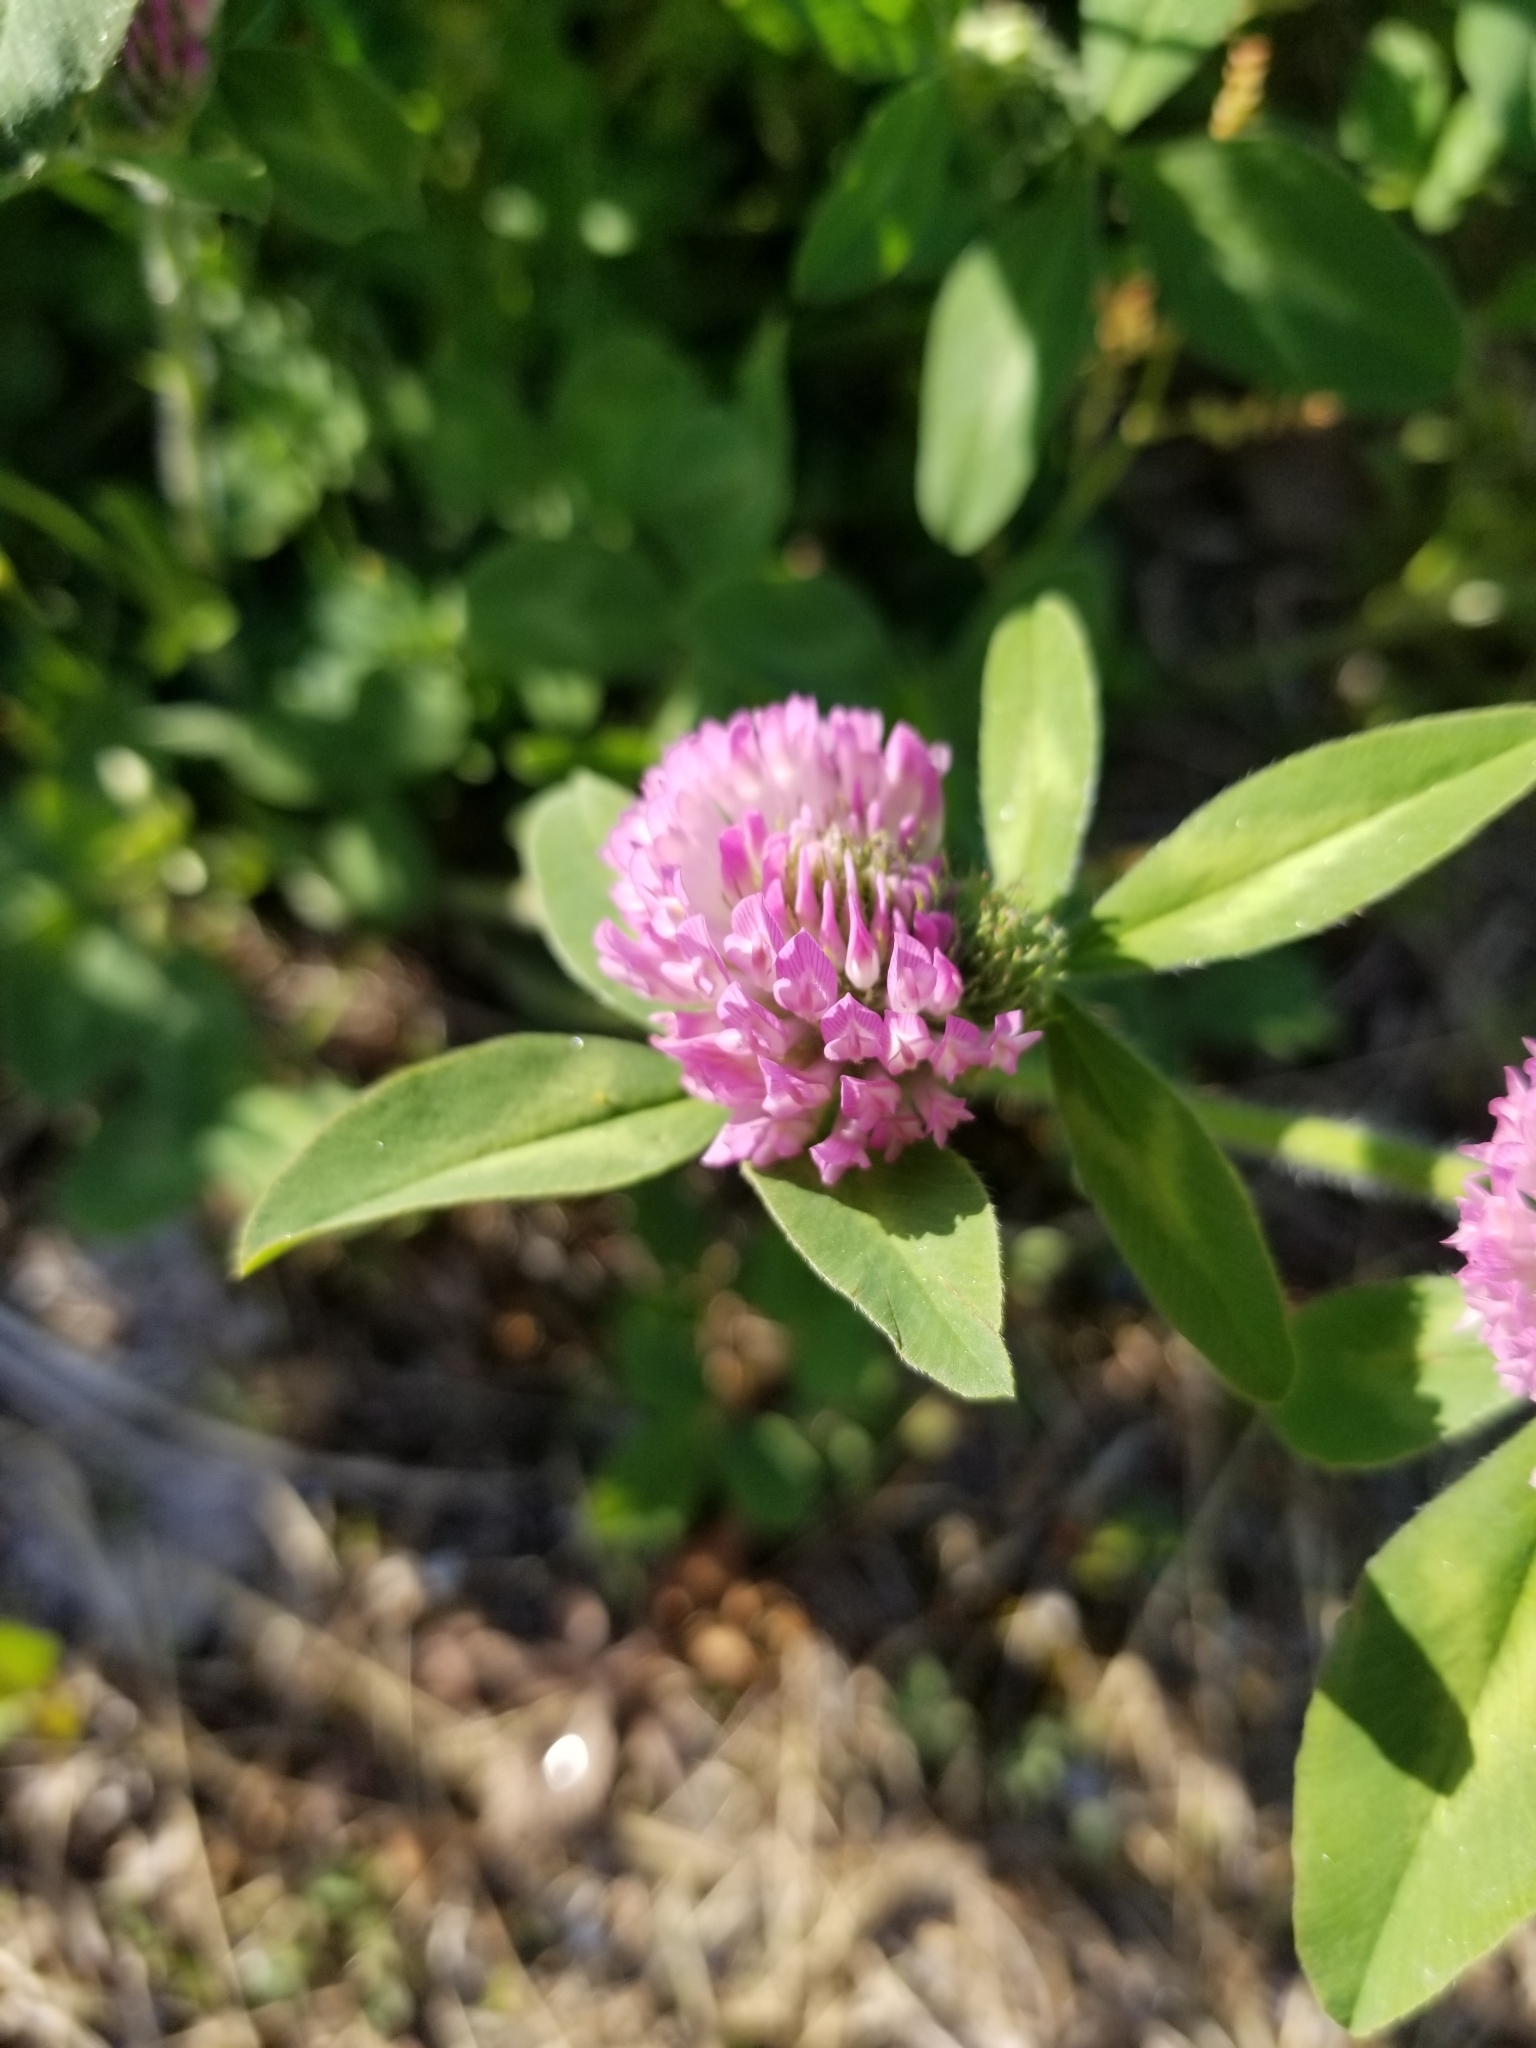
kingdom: Plantae
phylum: Tracheophyta
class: Magnoliopsida
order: Fabales
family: Fabaceae
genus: Trifolium
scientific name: Trifolium pratense
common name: Red clover
